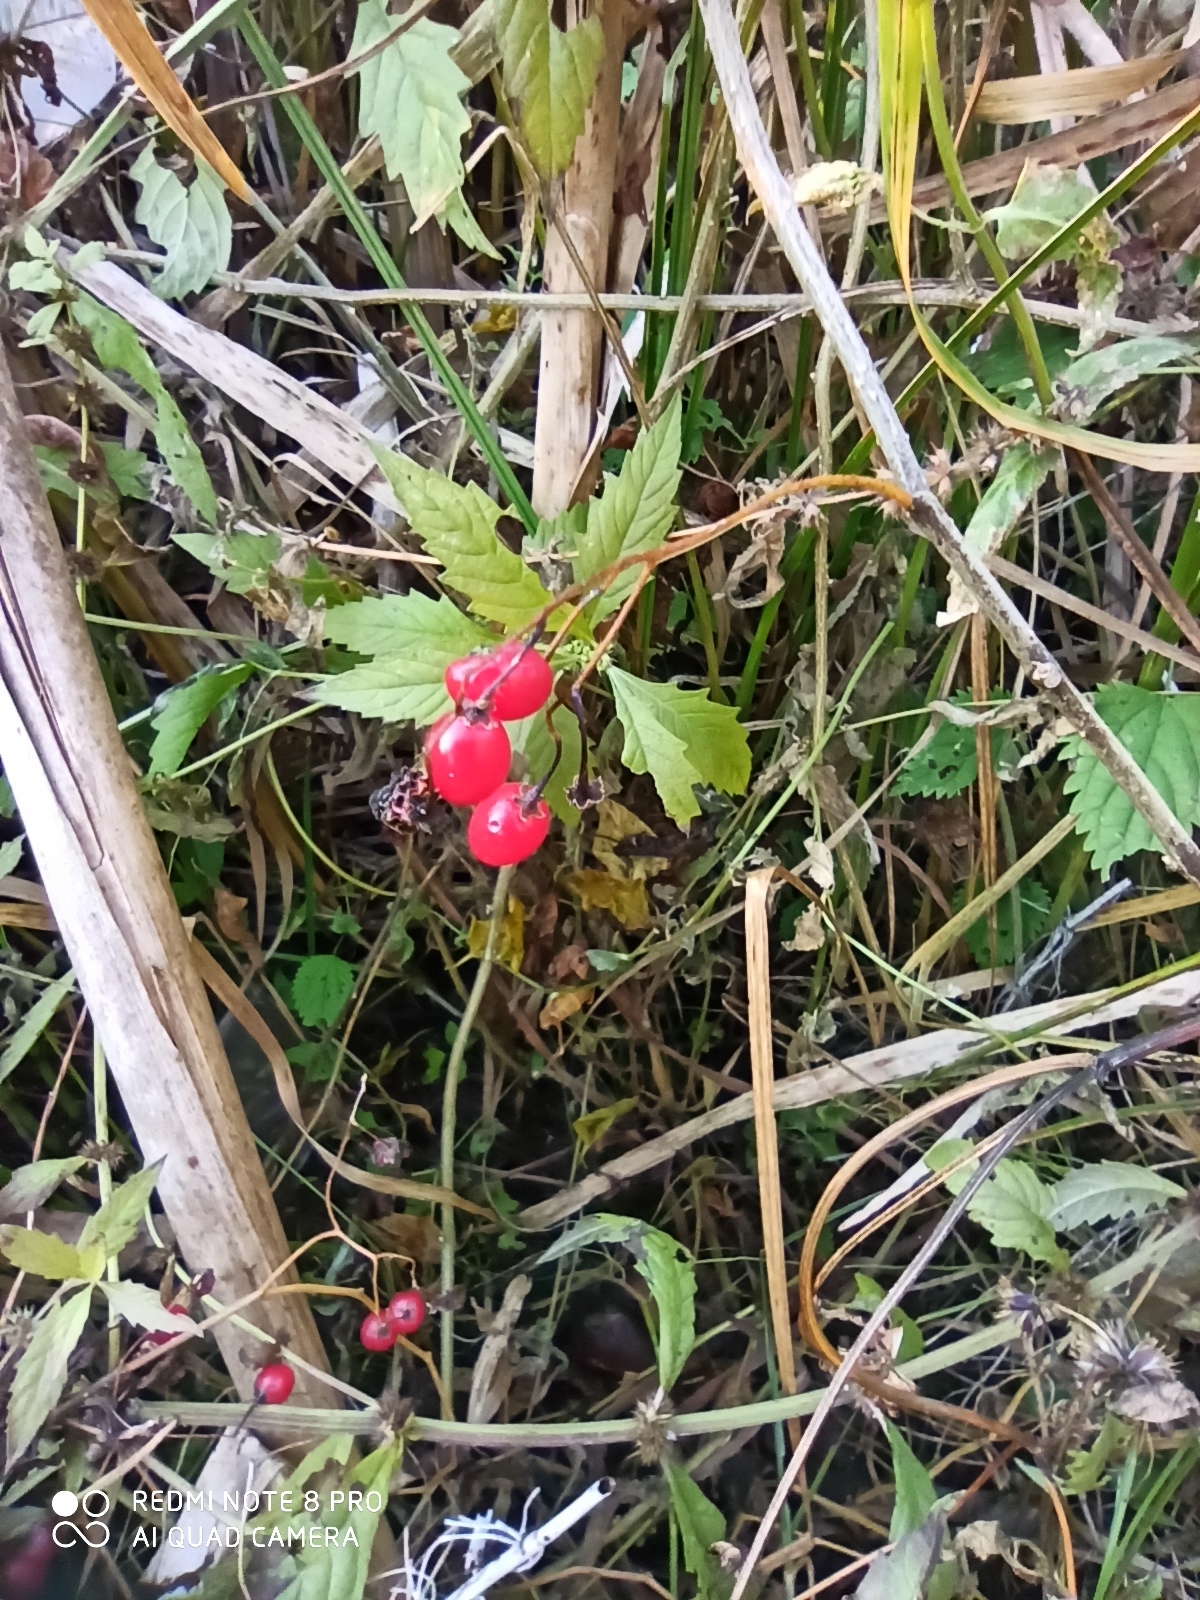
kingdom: Plantae
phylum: Tracheophyta
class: Magnoliopsida
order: Solanales
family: Solanaceae
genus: Solanum
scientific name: Solanum dulcamara
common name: Climbing nightshade
